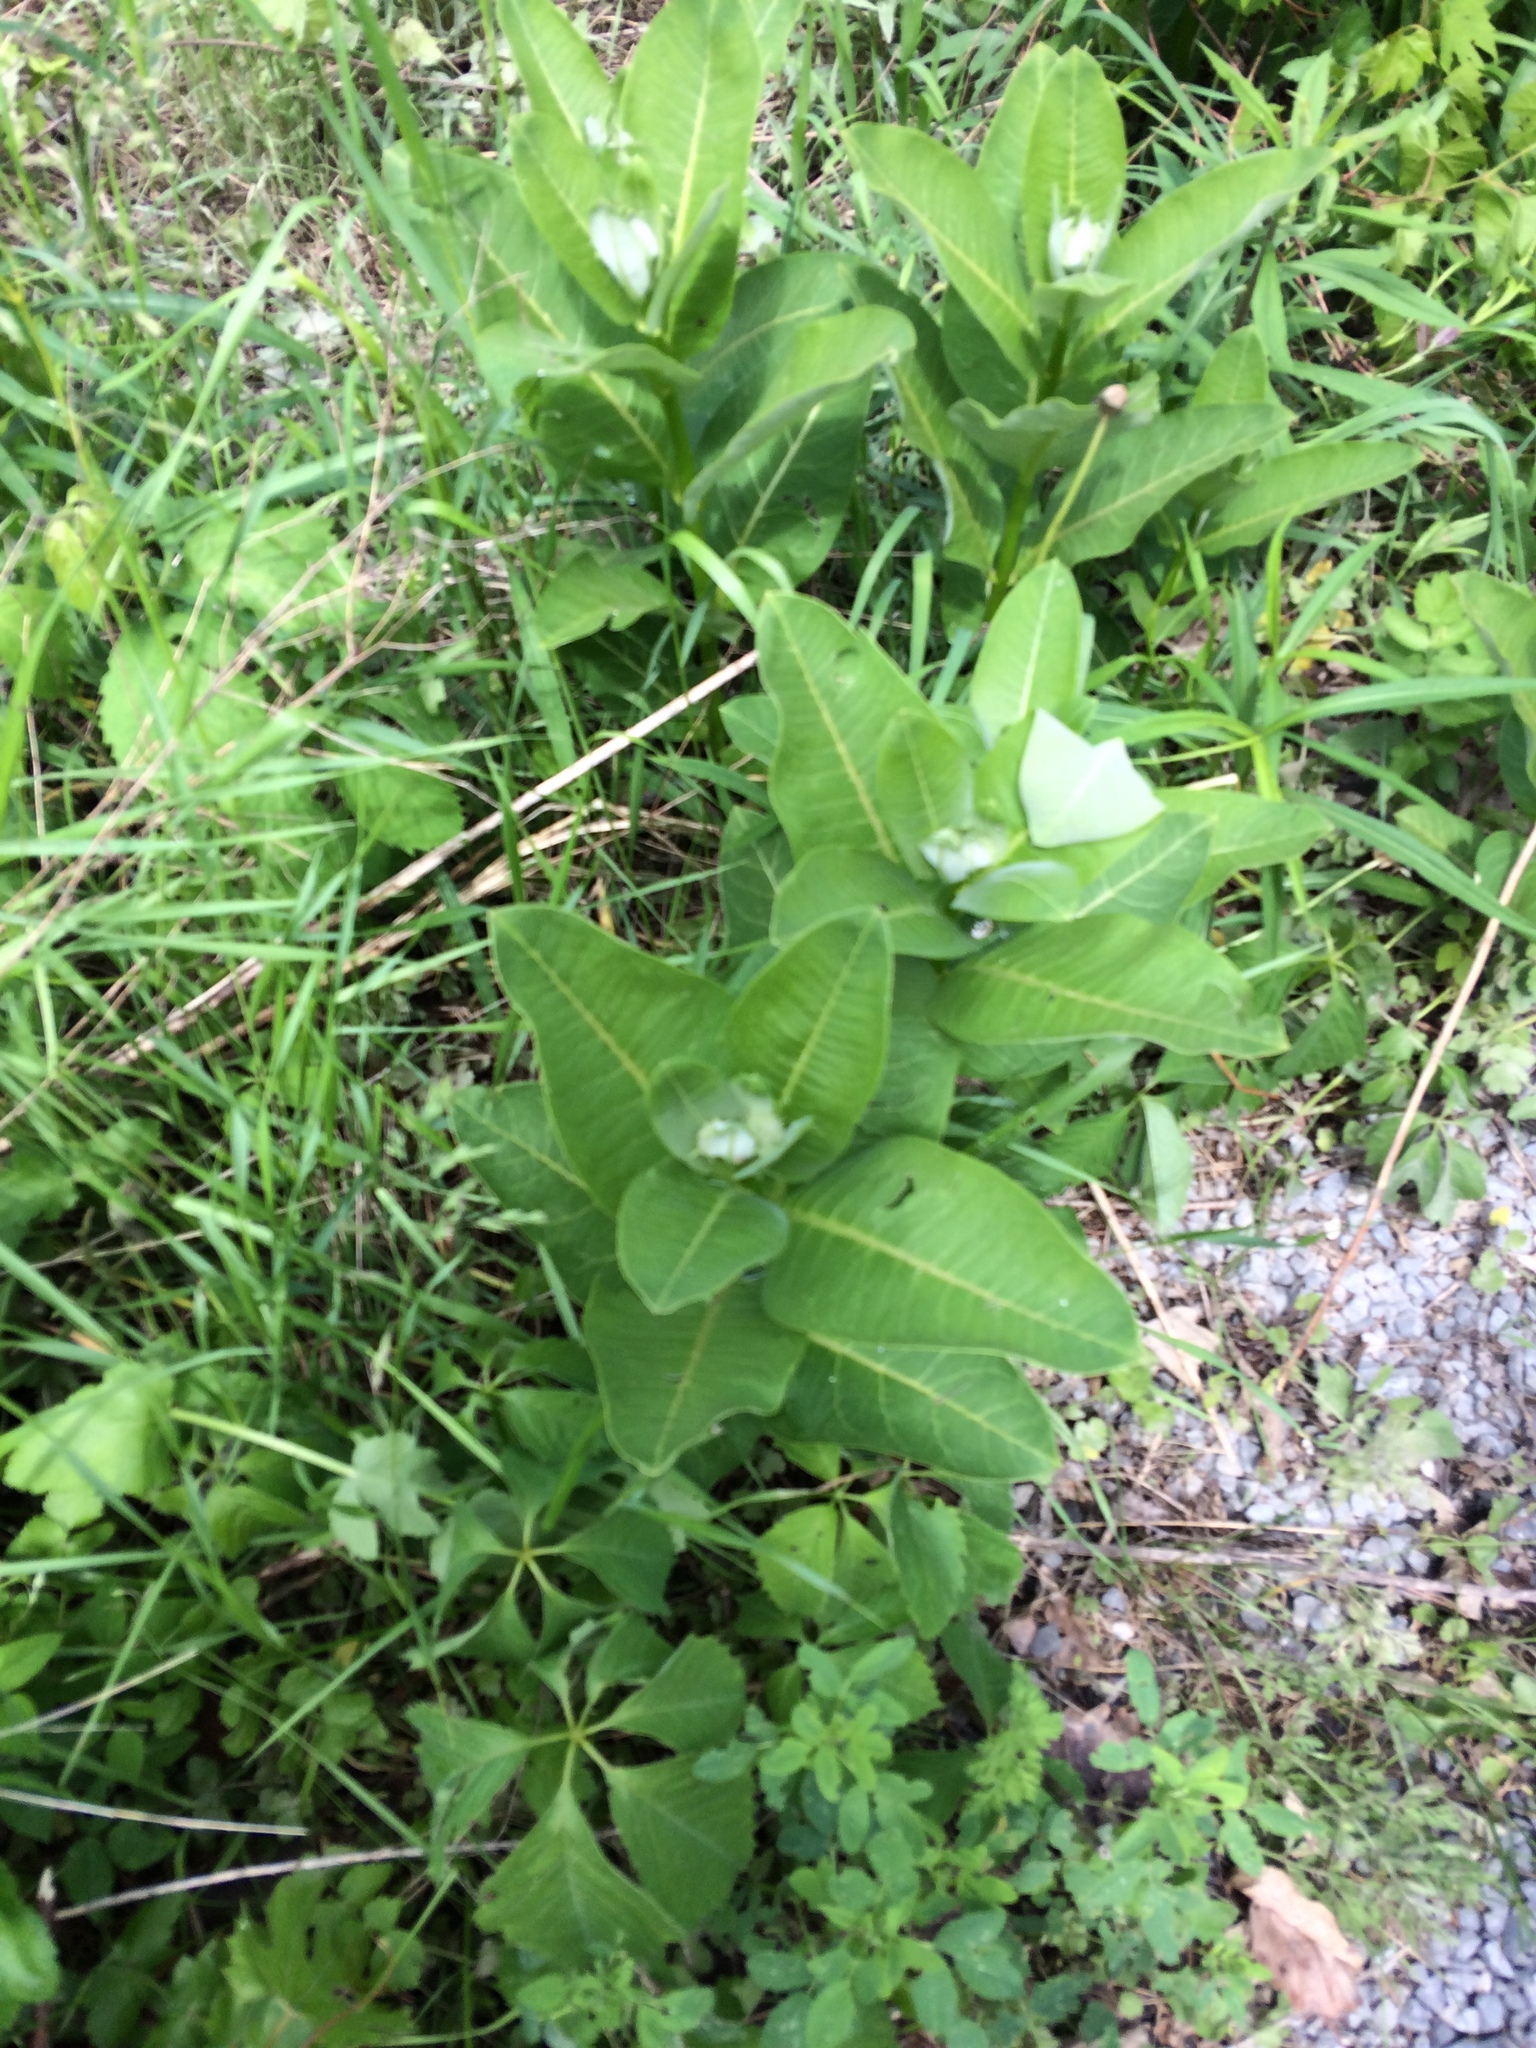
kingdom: Plantae
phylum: Tracheophyta
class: Magnoliopsida
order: Gentianales
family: Apocynaceae
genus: Asclepias
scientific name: Asclepias syriaca
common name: Common milkweed
